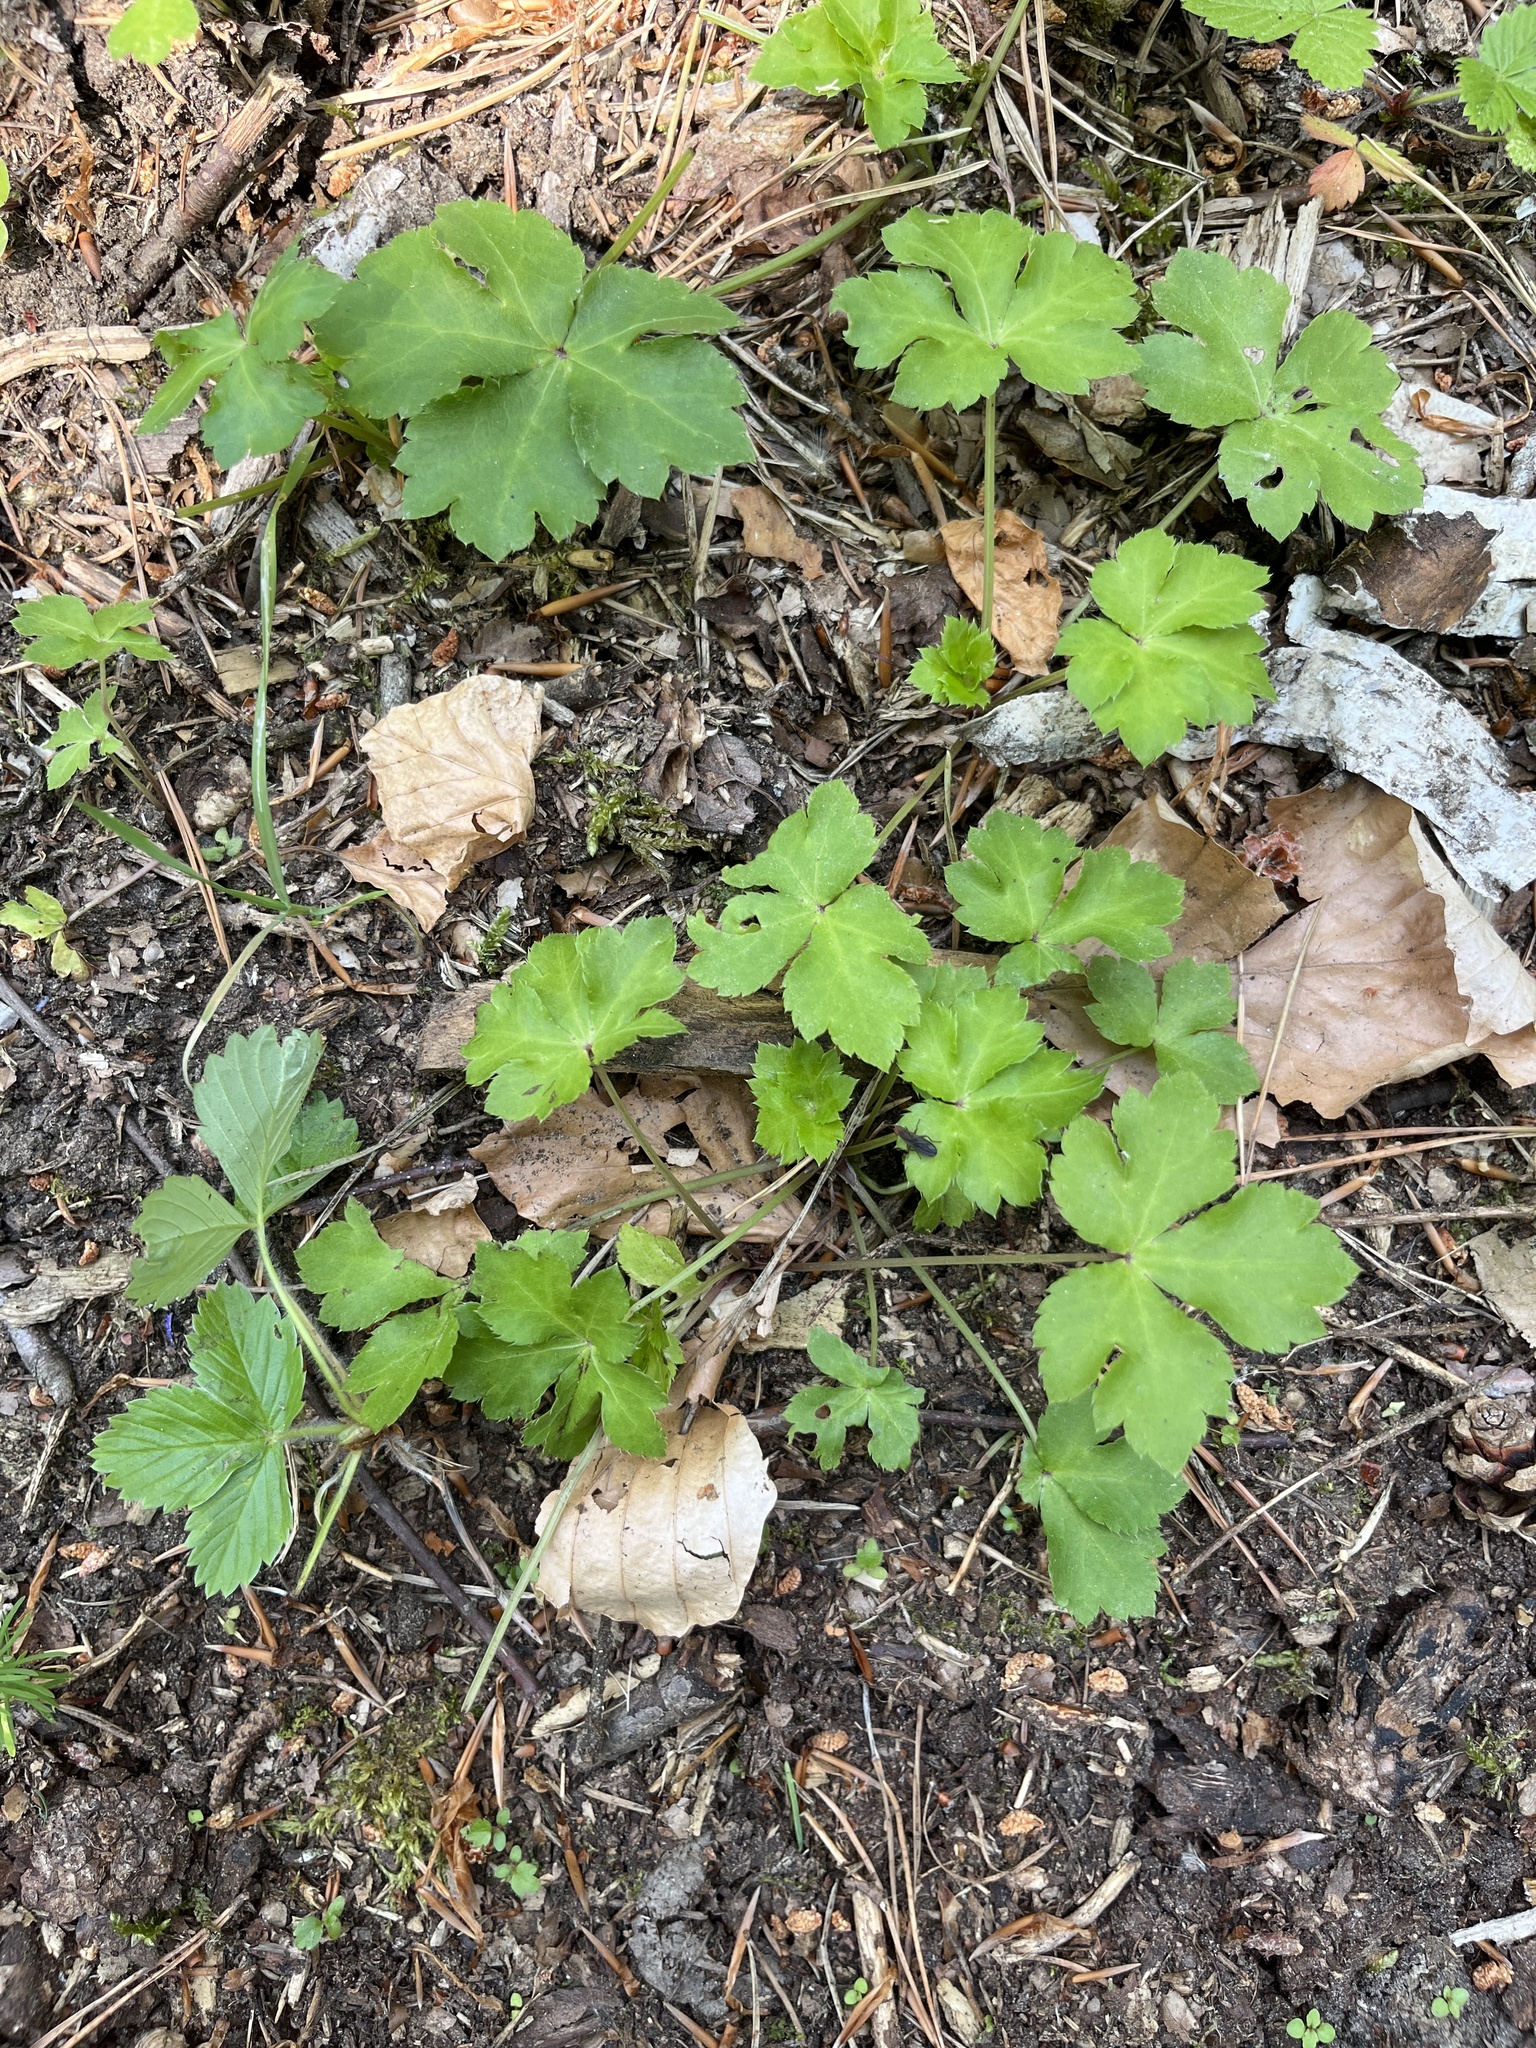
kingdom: Plantae
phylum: Tracheophyta
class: Magnoliopsida
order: Apiales
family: Apiaceae
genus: Sanicula
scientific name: Sanicula europaea
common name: Sanicle
